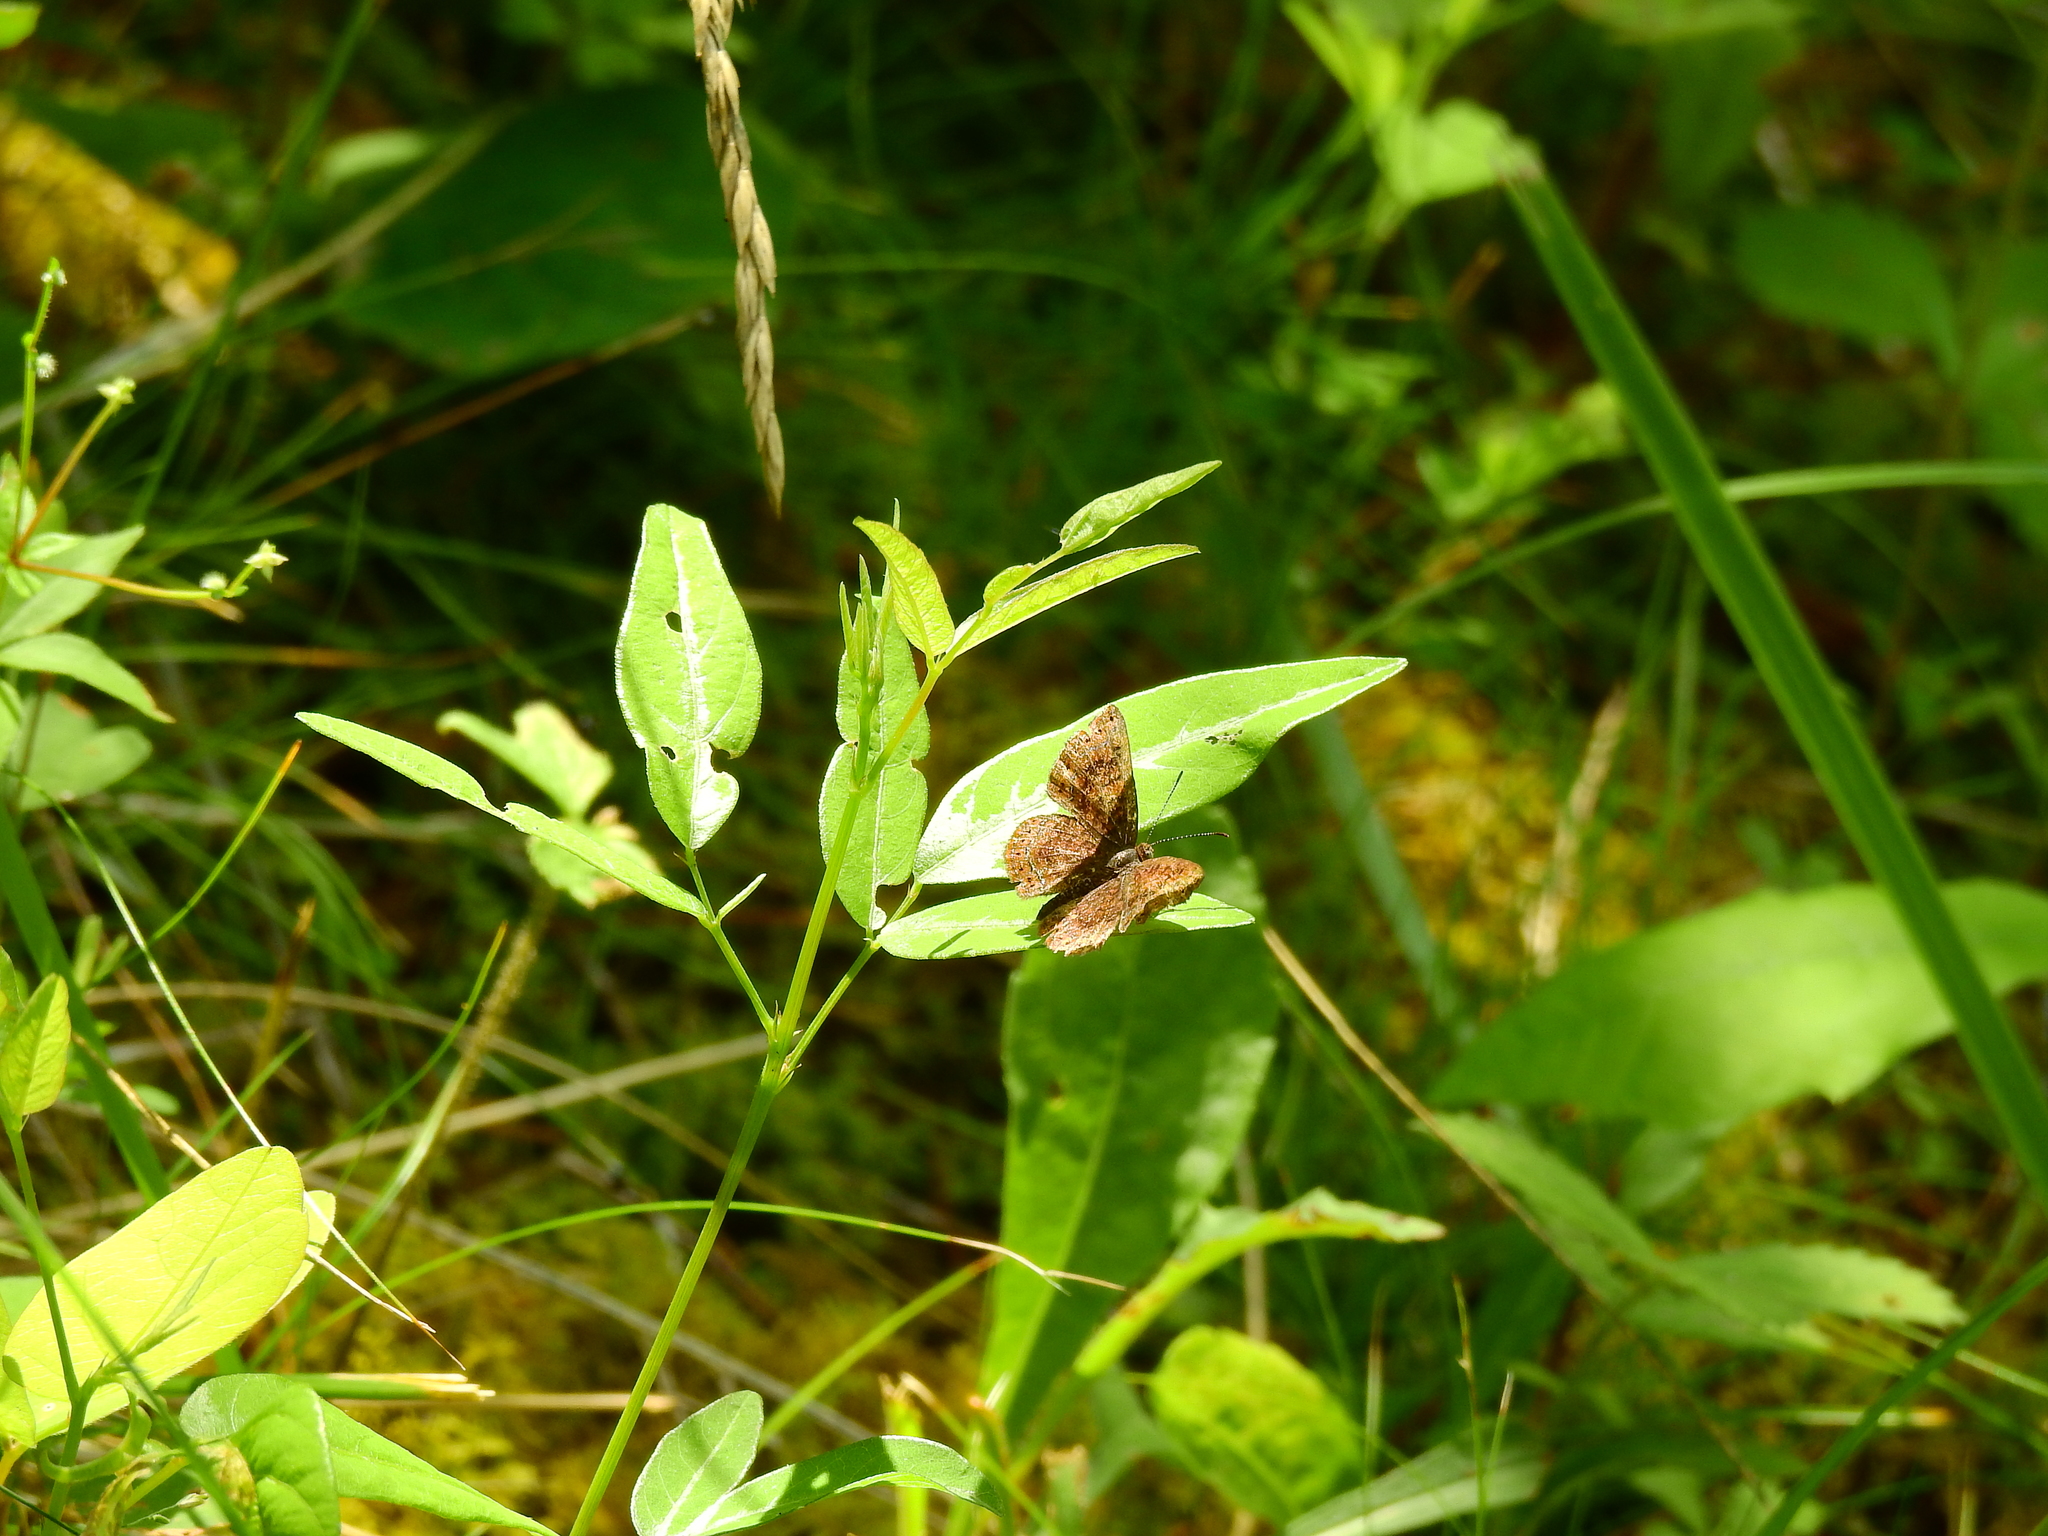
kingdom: Animalia
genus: Calephelis
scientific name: Calephelis borealis
